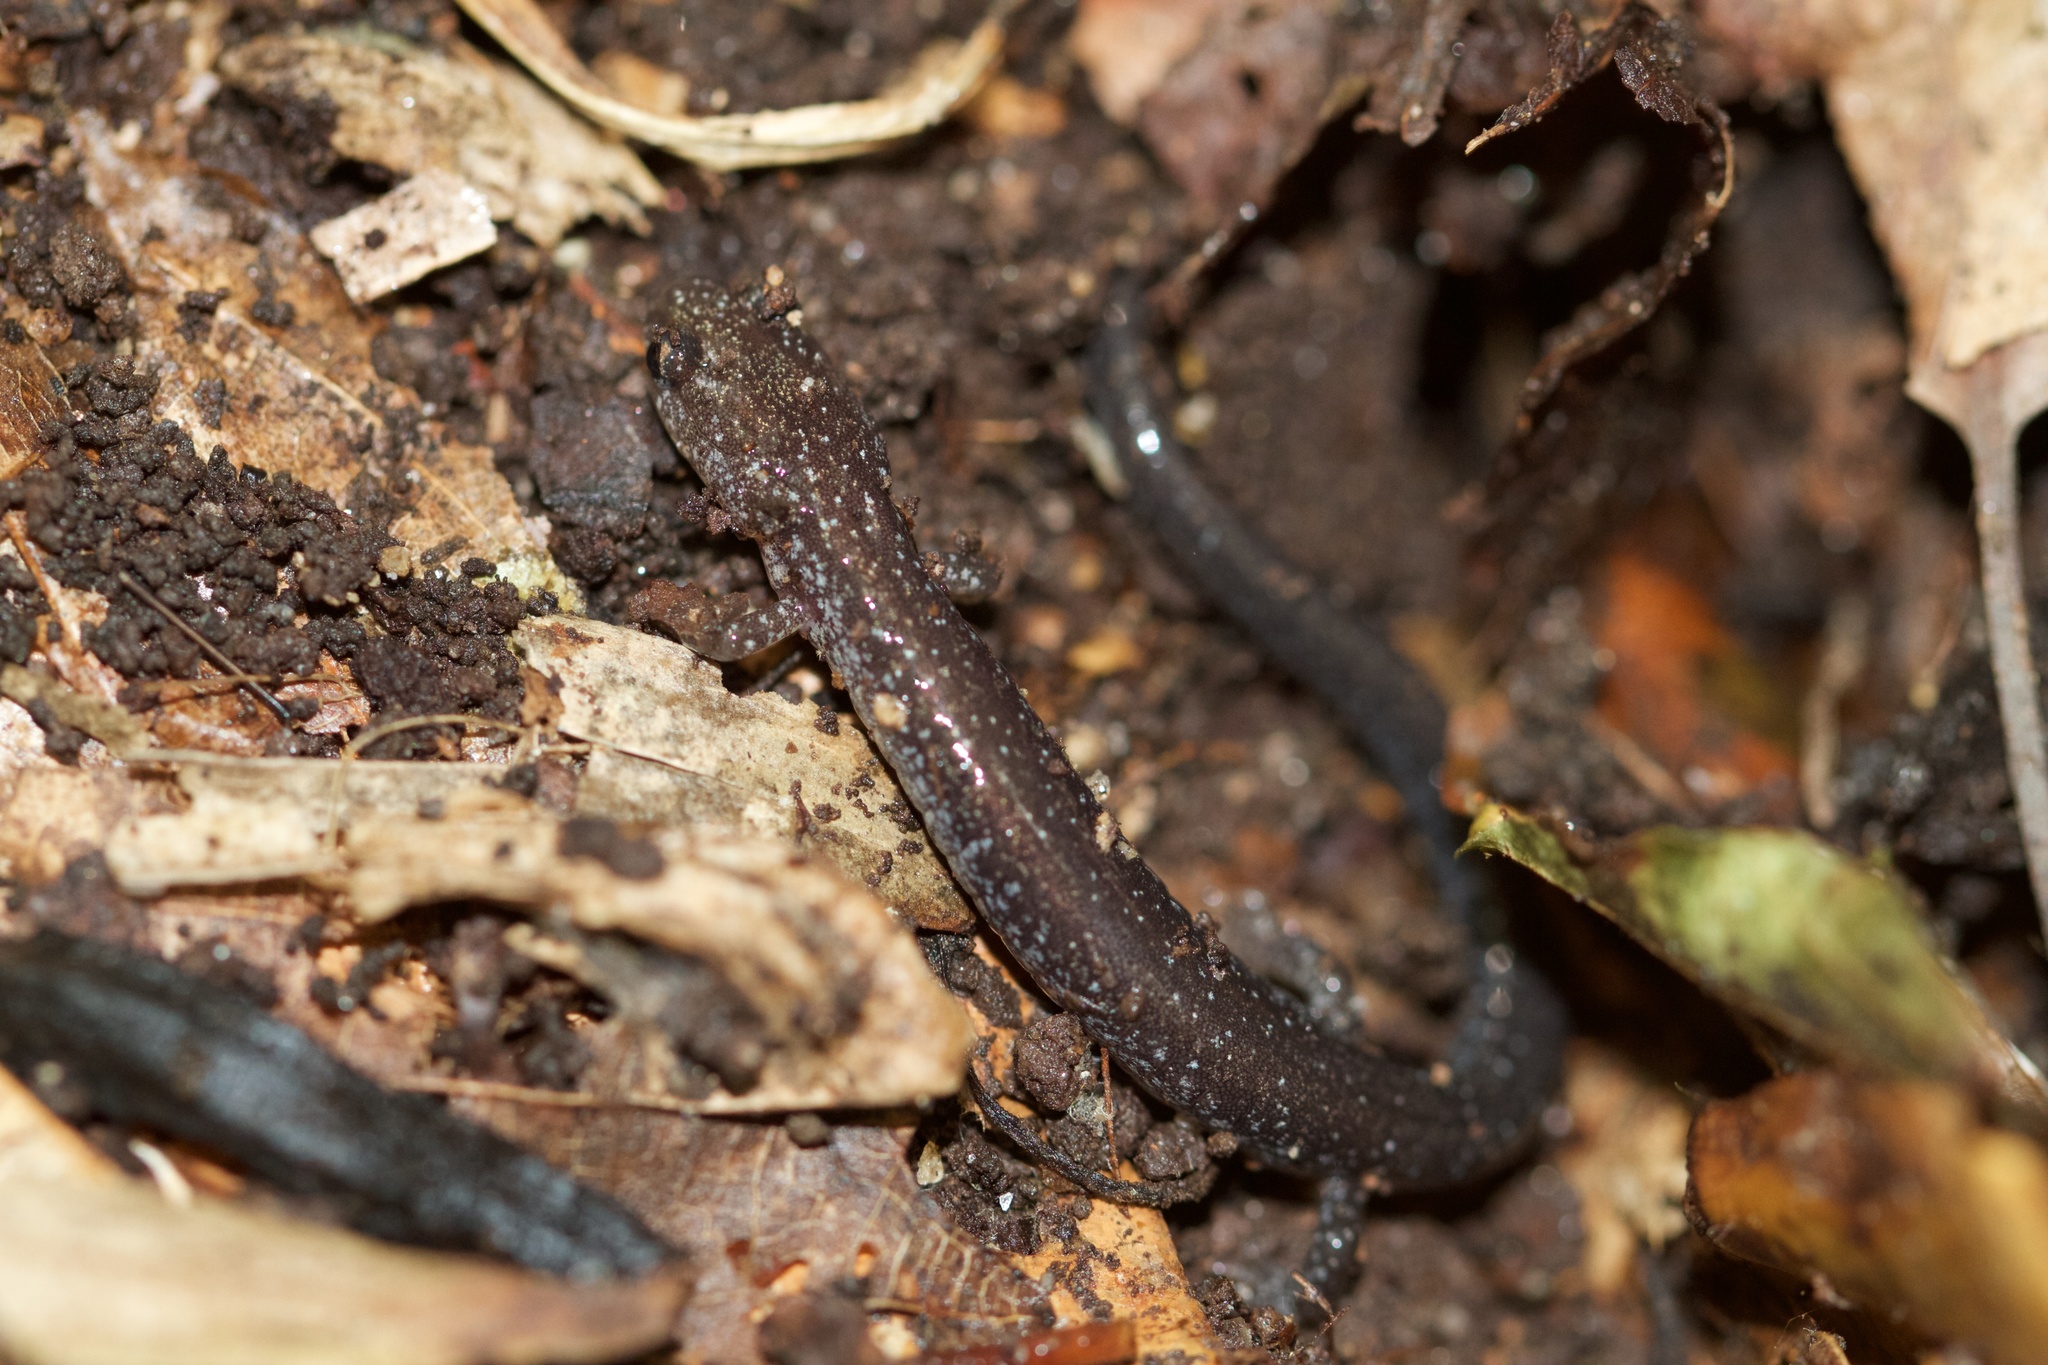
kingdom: Animalia
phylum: Chordata
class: Amphibia
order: Caudata
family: Plethodontidae
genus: Plethodon
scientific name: Plethodon cinereus
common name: Redback salamander
